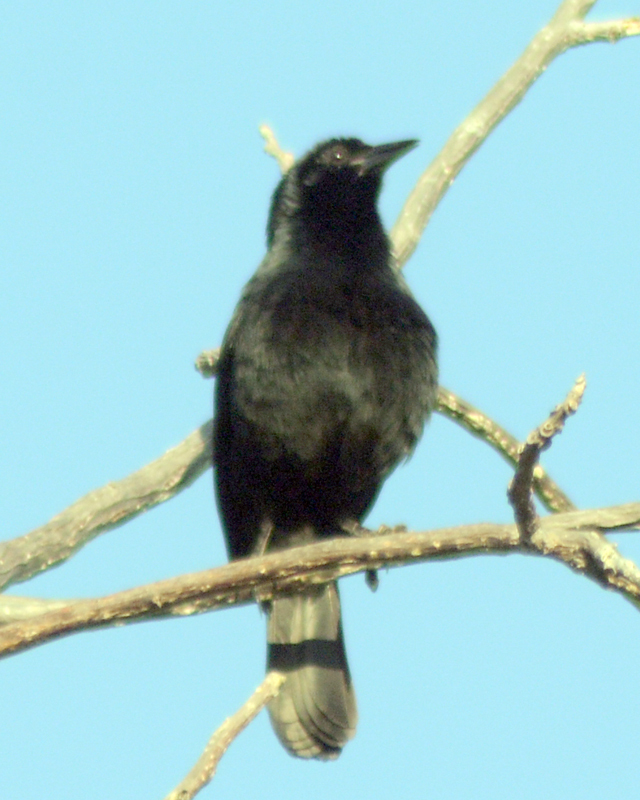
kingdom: Animalia
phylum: Chordata
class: Aves
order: Passeriformes
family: Icteridae
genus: Dives
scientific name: Dives dives
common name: Melodious blackbird
